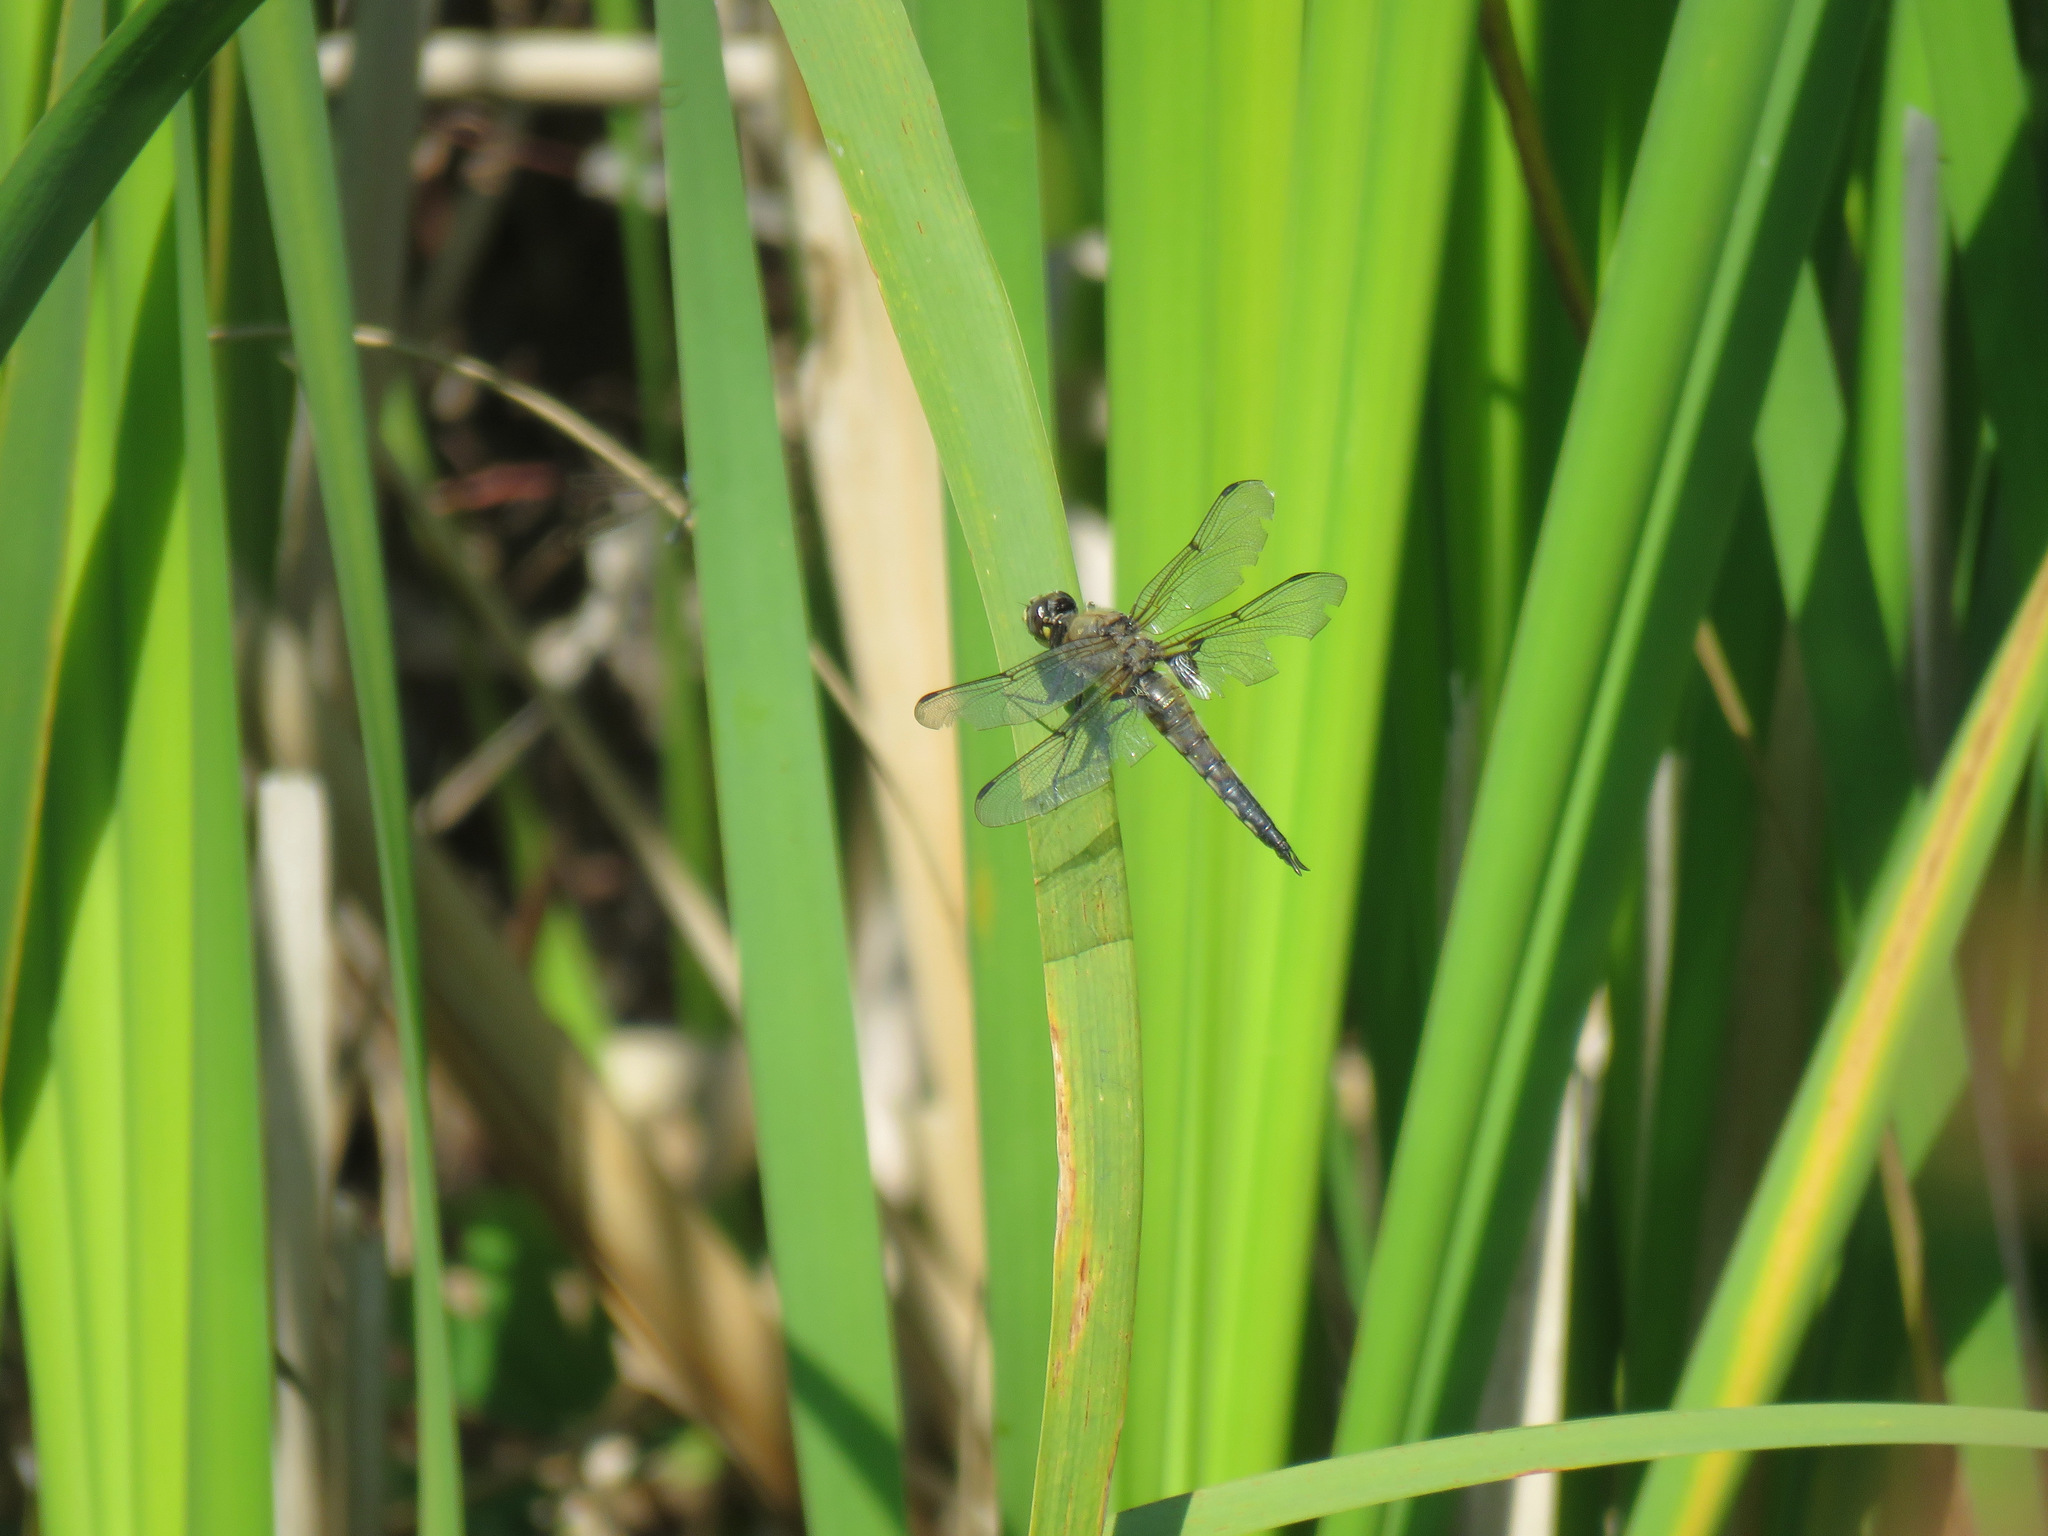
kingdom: Animalia
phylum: Arthropoda
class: Insecta
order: Odonata
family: Libellulidae
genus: Libellula
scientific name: Libellula quadrimaculata
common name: Four-spotted chaser
